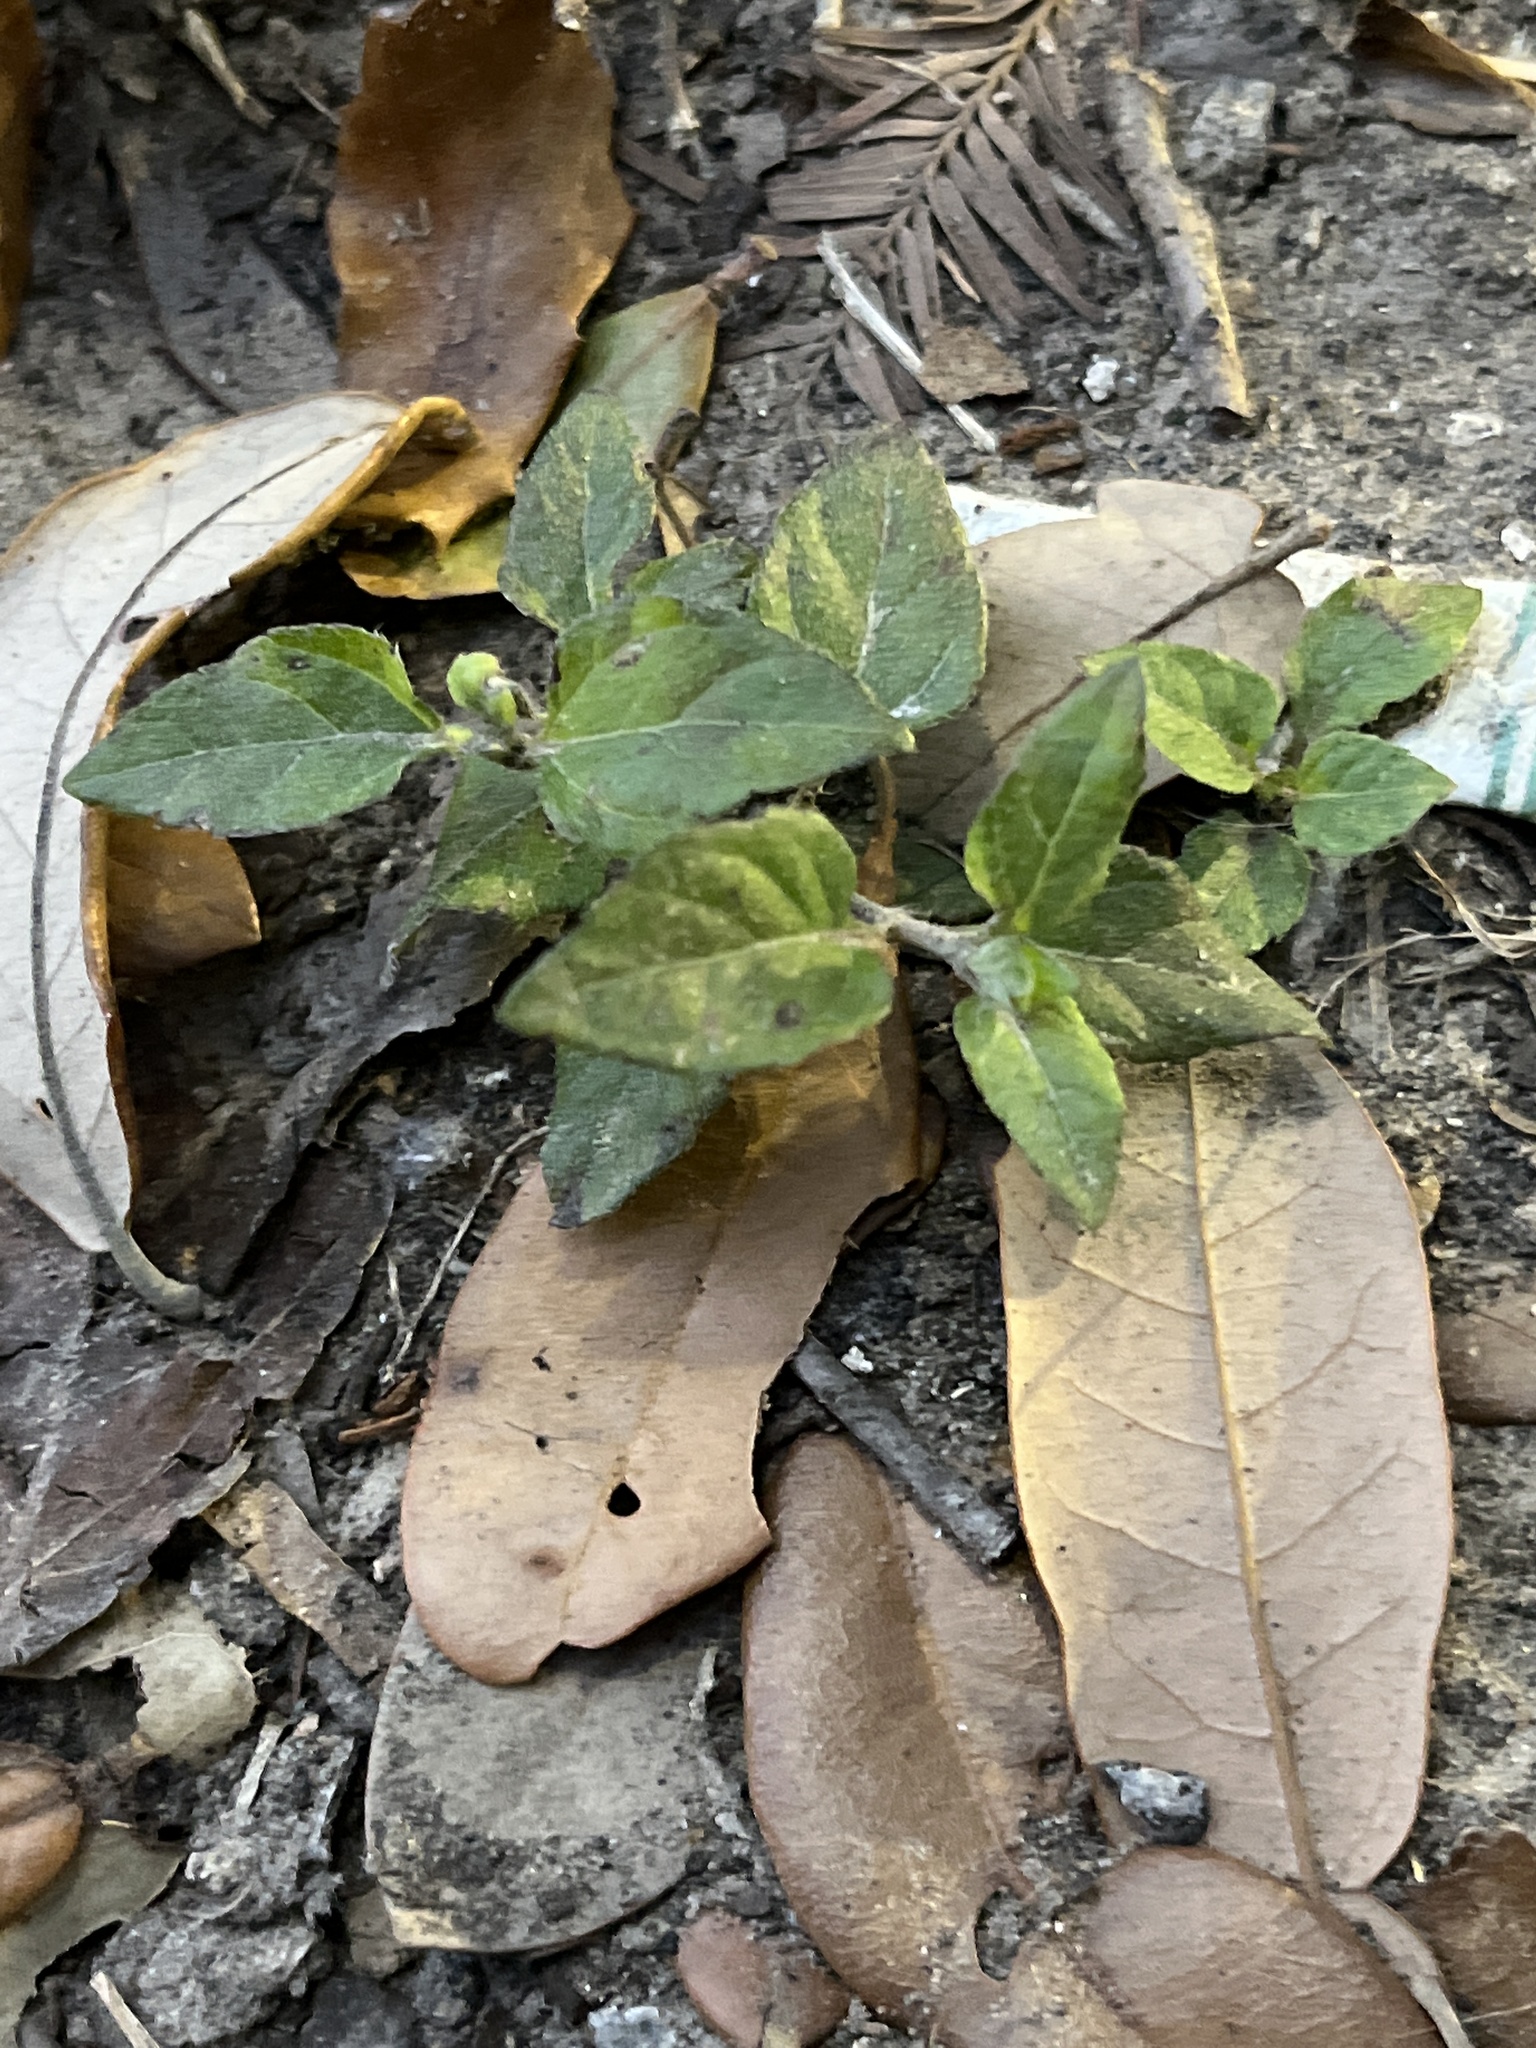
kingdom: Plantae
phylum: Tracheophyta
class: Magnoliopsida
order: Asterales
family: Asteraceae
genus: Calyptocarpus
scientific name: Calyptocarpus vialis
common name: Straggler daisy
